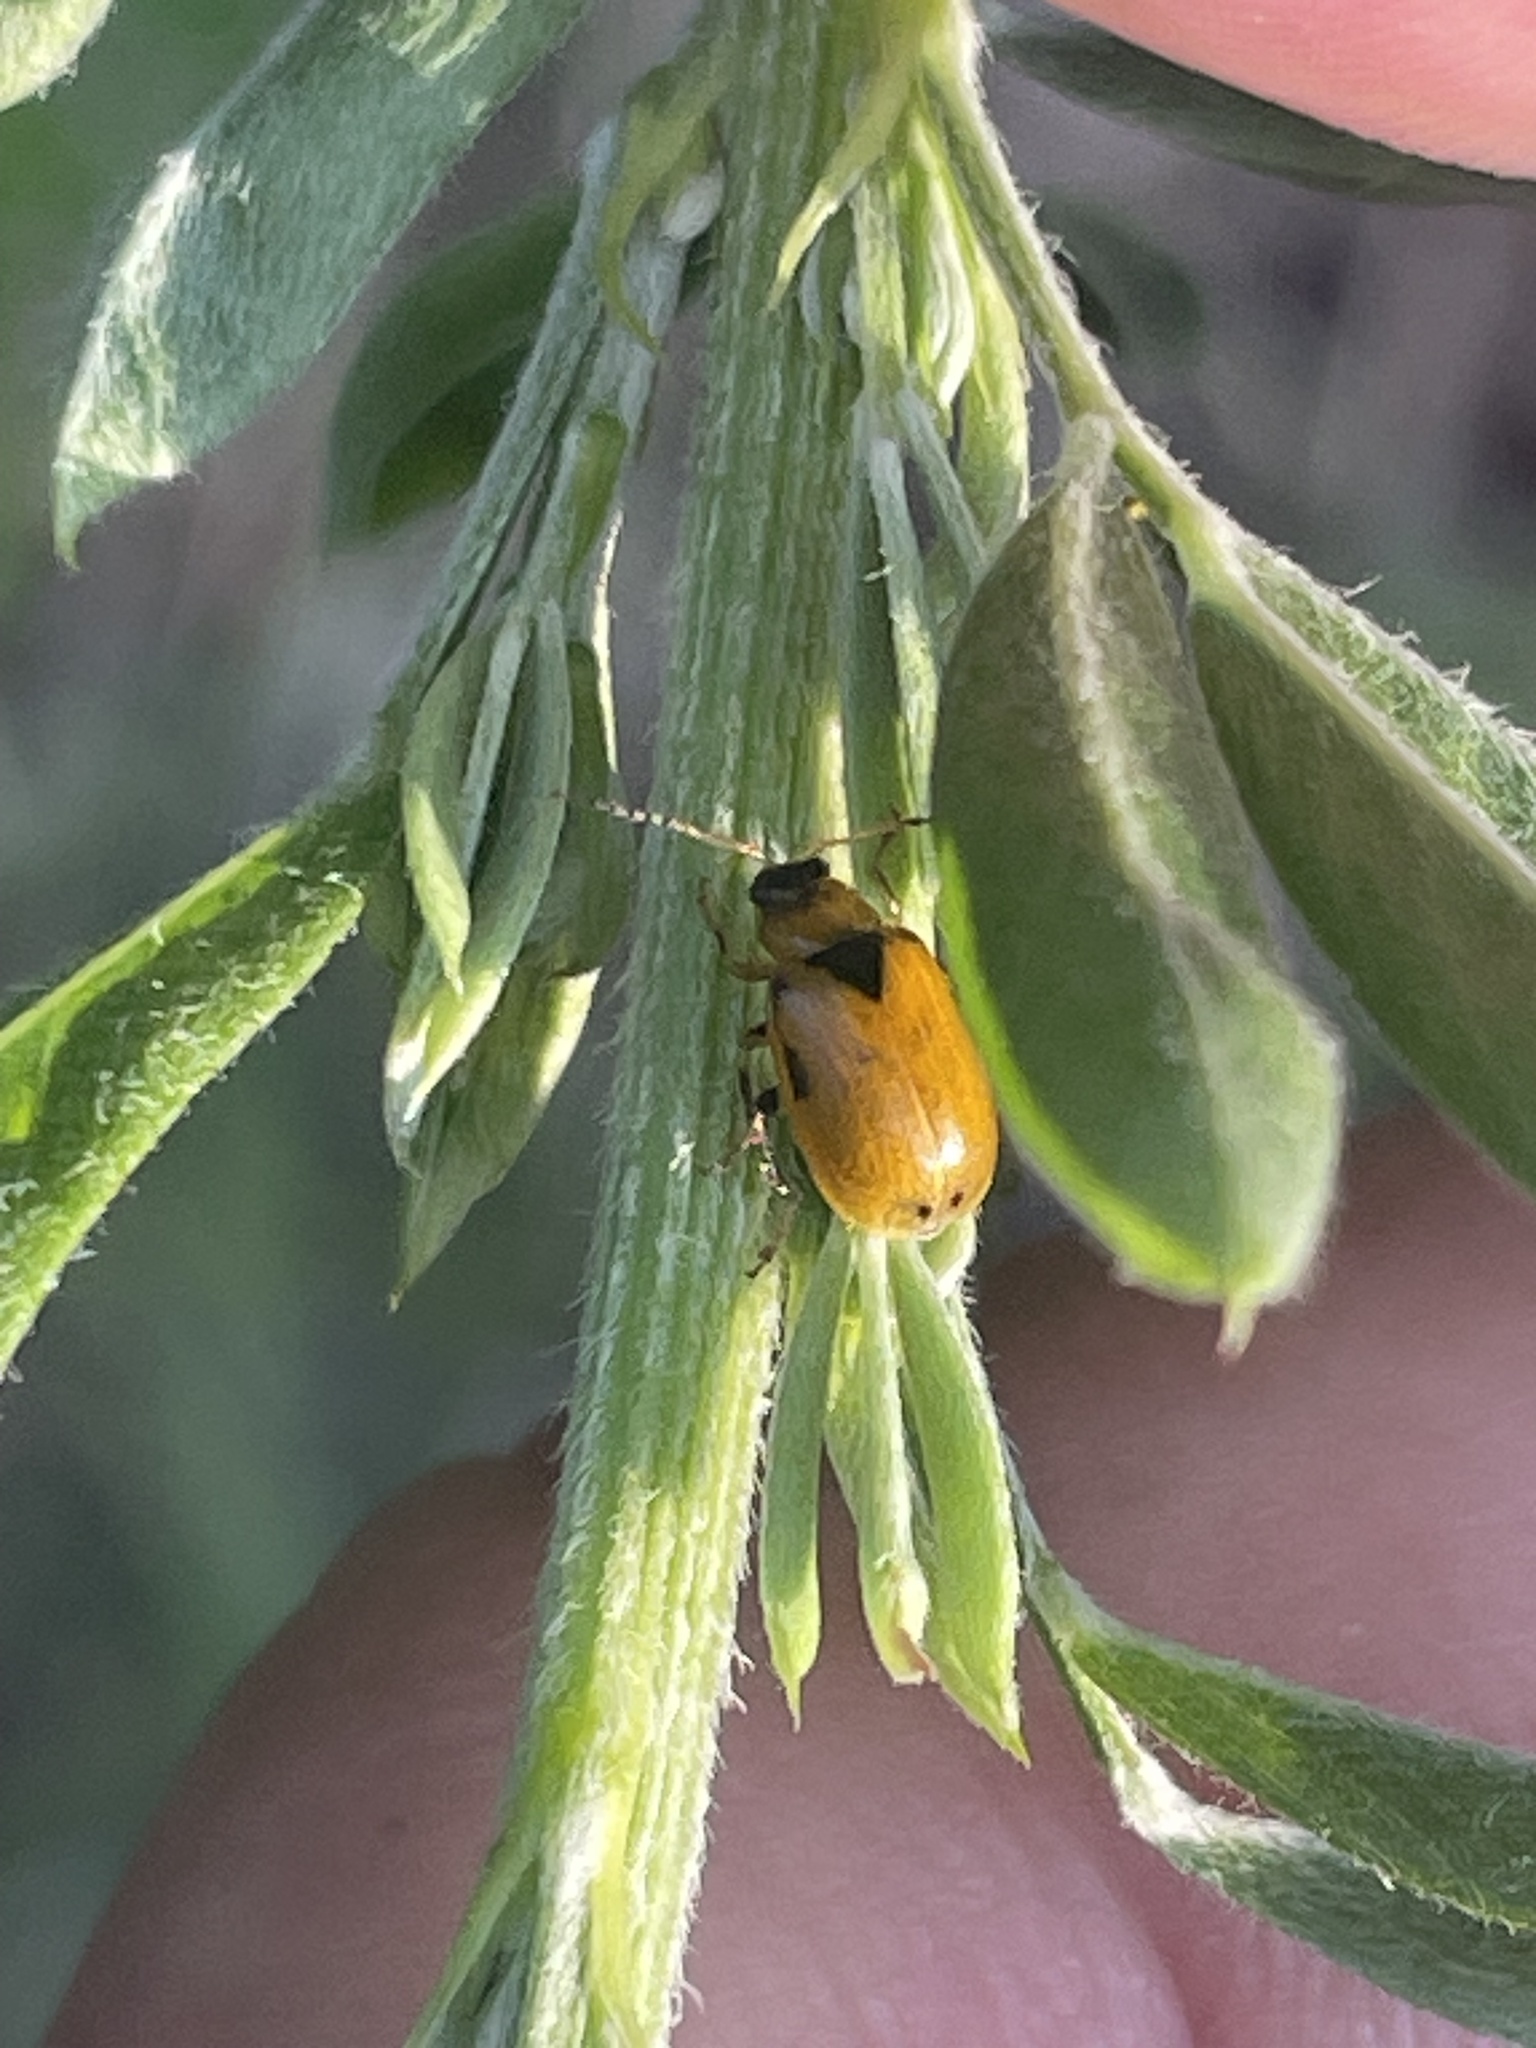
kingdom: Animalia
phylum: Arthropoda
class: Insecta
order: Coleoptera
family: Chrysomelidae
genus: Cerotoma
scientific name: Cerotoma trifurcata
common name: Bean leaf beetle
